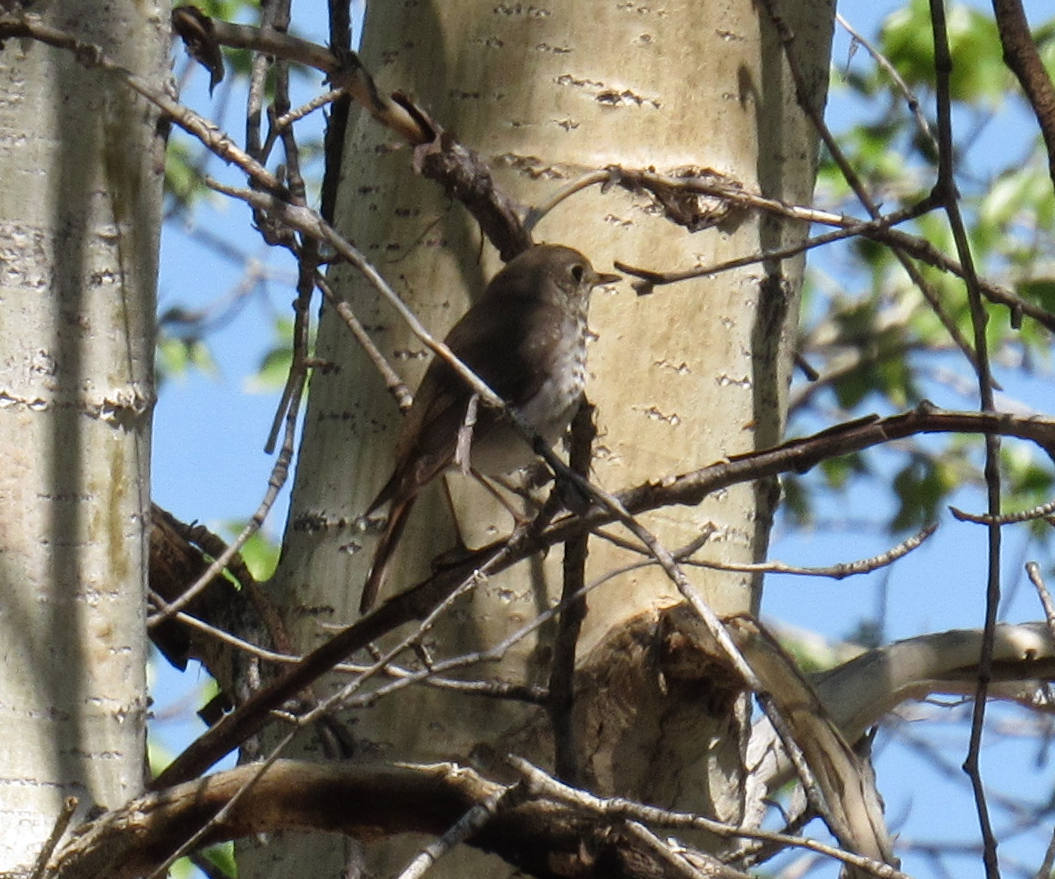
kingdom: Animalia
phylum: Chordata
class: Aves
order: Passeriformes
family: Turdidae
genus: Catharus
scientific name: Catharus guttatus
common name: Hermit thrush
